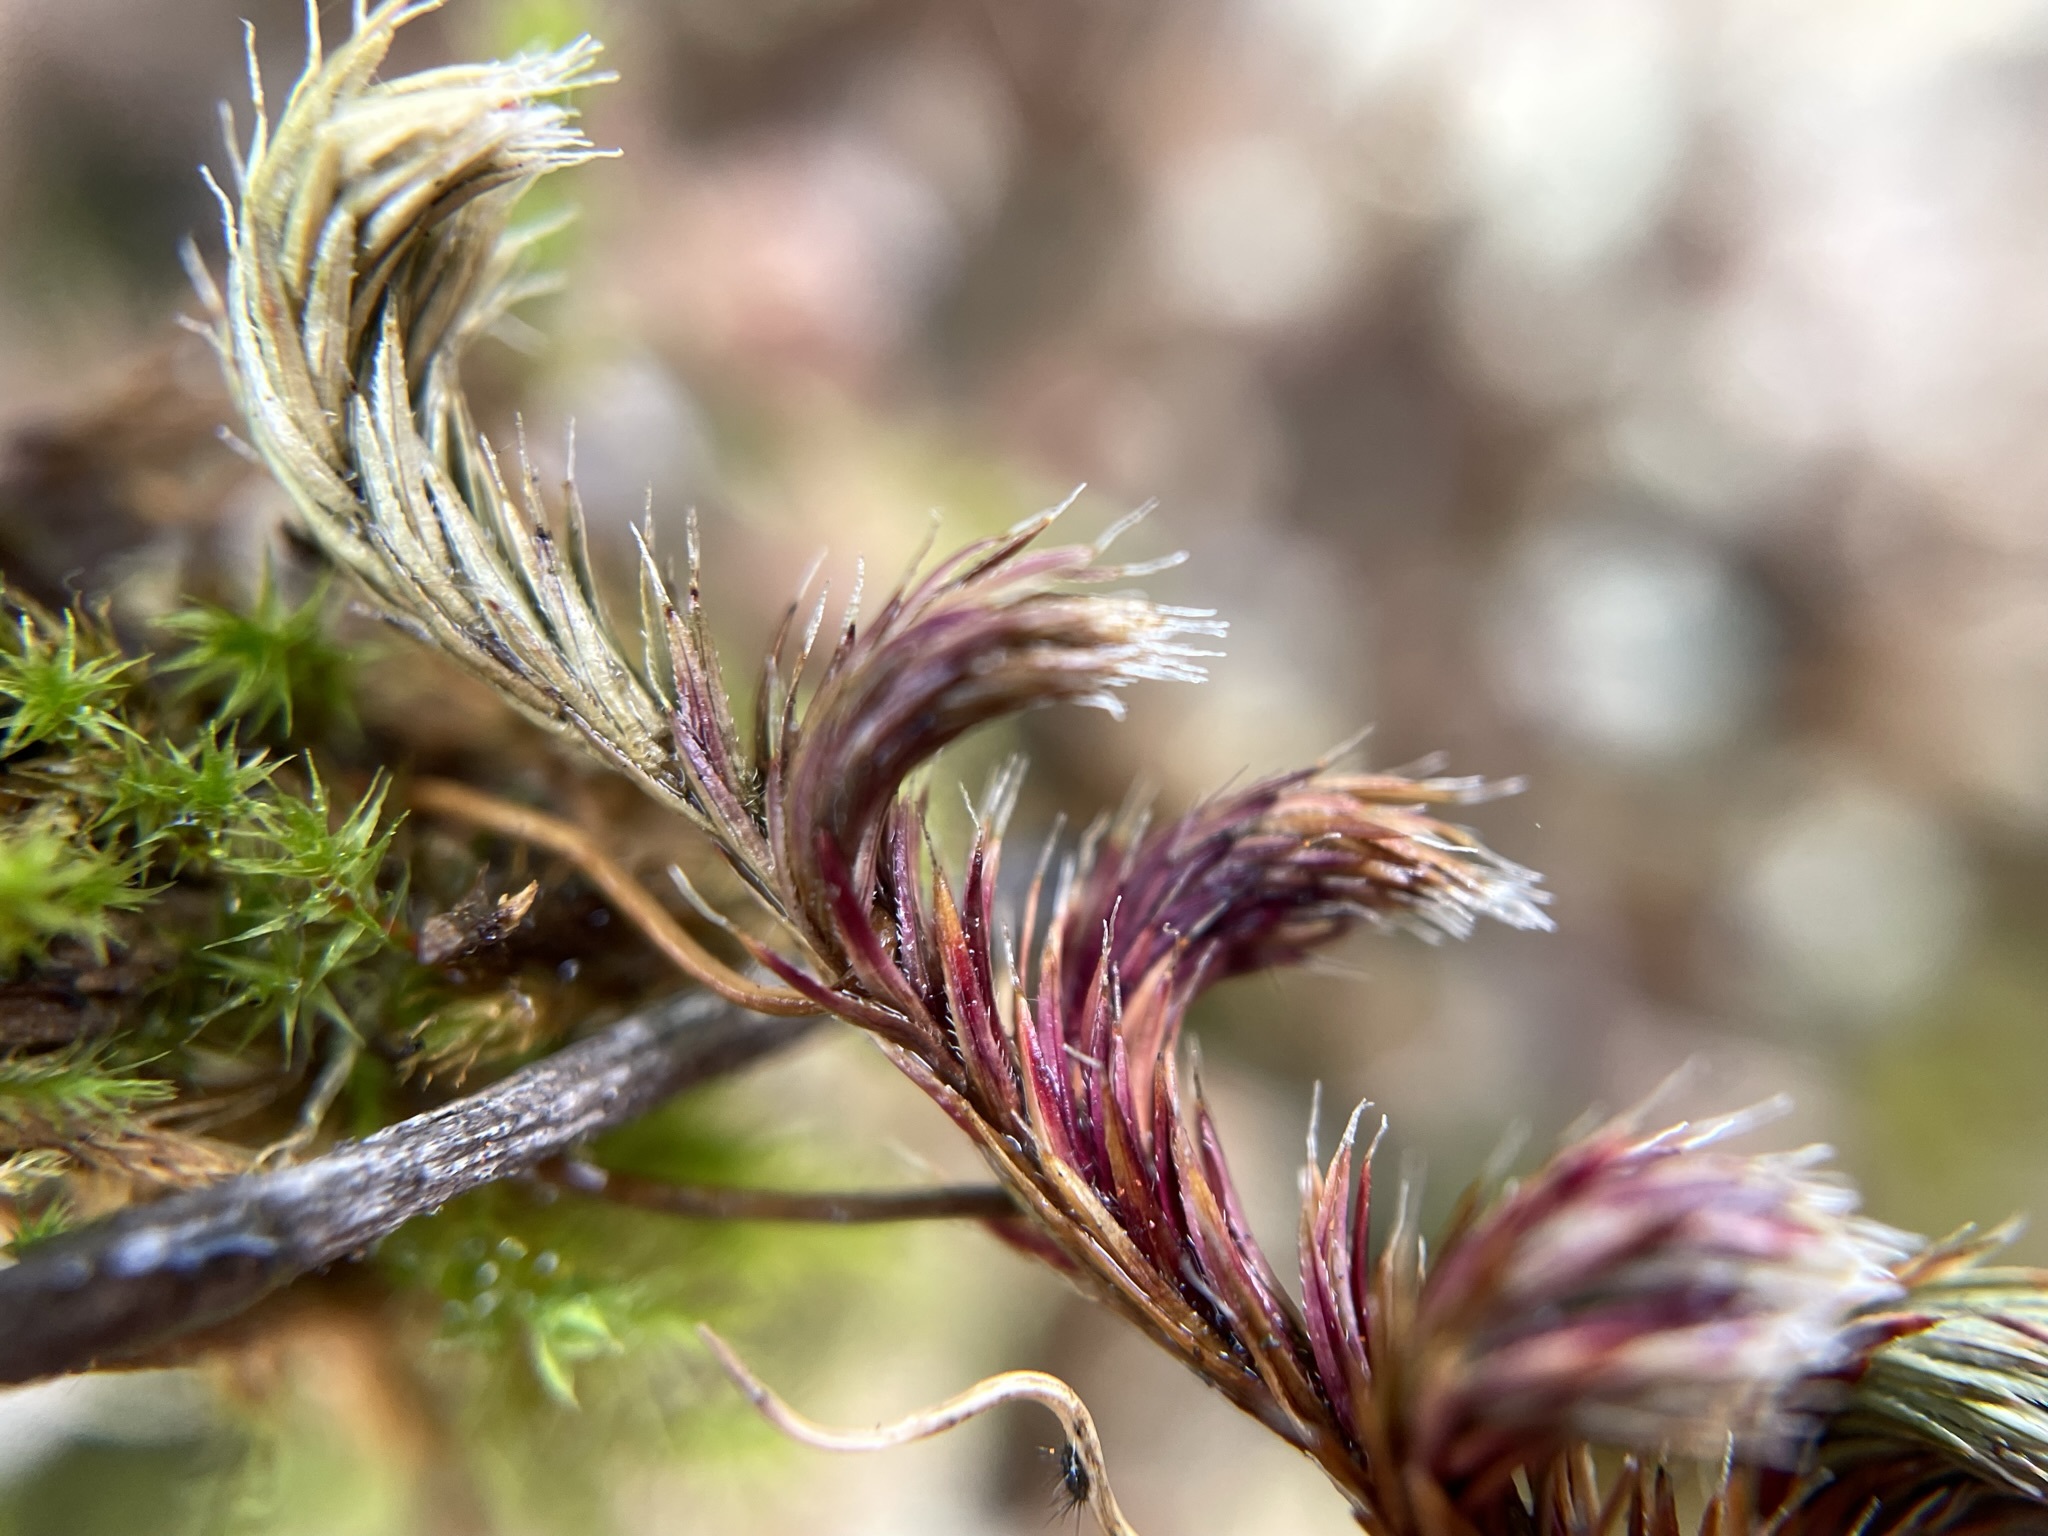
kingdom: Plantae
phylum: Tracheophyta
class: Lycopodiopsida
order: Selaginellales
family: Selaginellaceae
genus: Selaginella
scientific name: Selaginella hansenii
